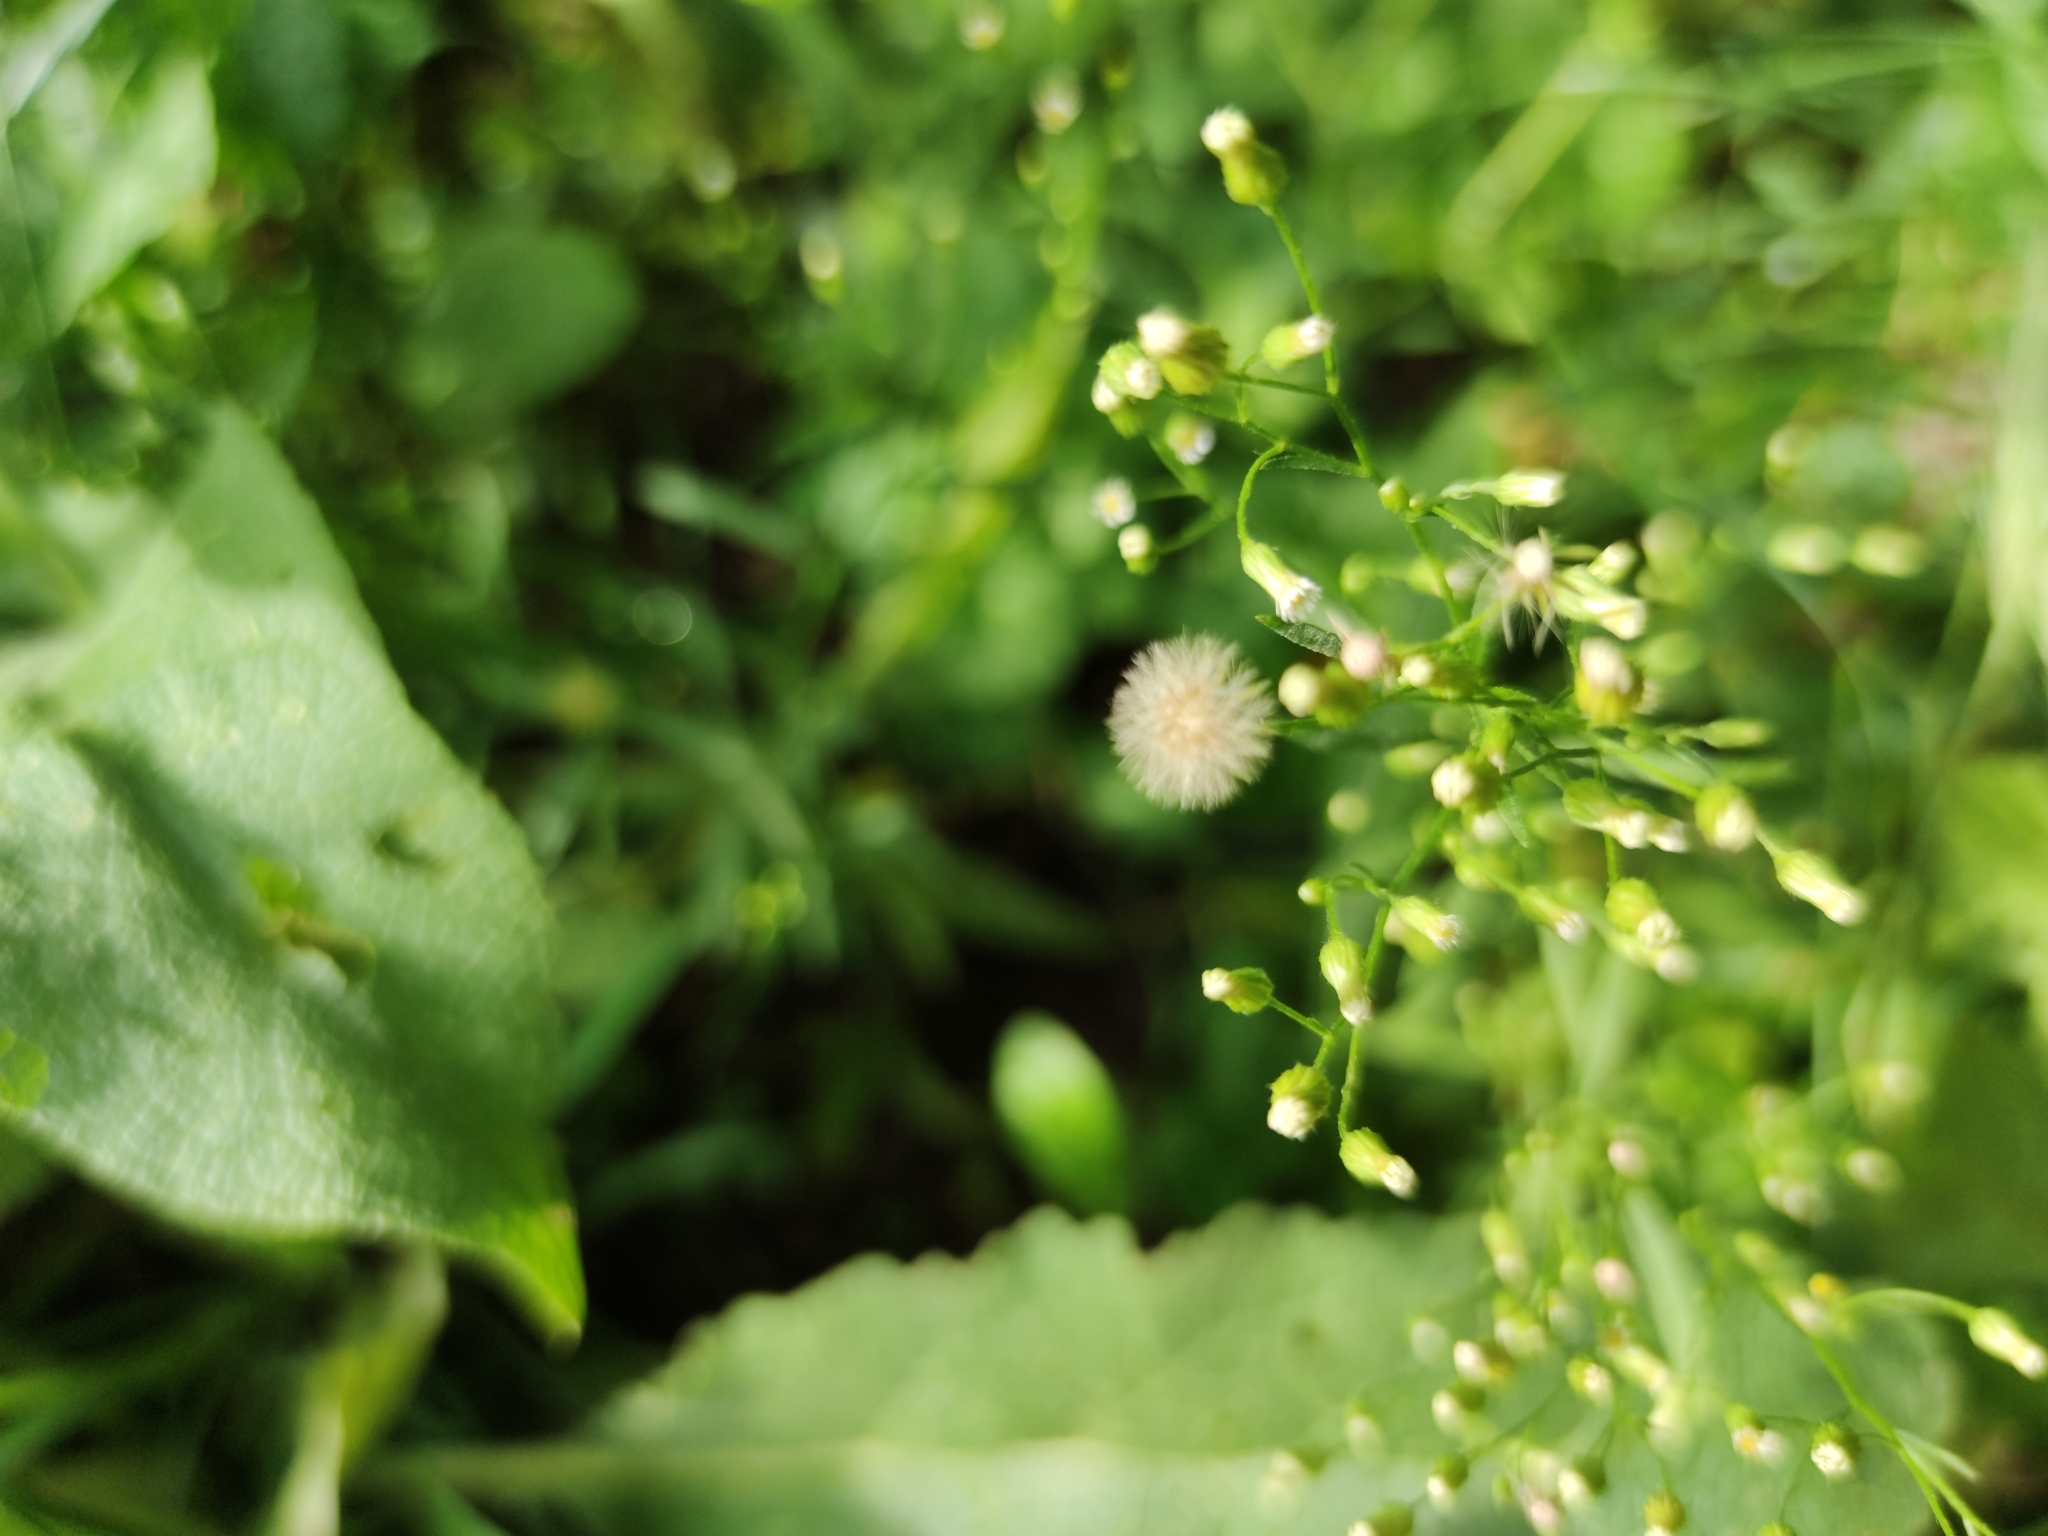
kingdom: Plantae
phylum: Tracheophyta
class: Magnoliopsida
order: Asterales
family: Asteraceae
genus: Erigeron
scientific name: Erigeron canadensis
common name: Canadian fleabane
